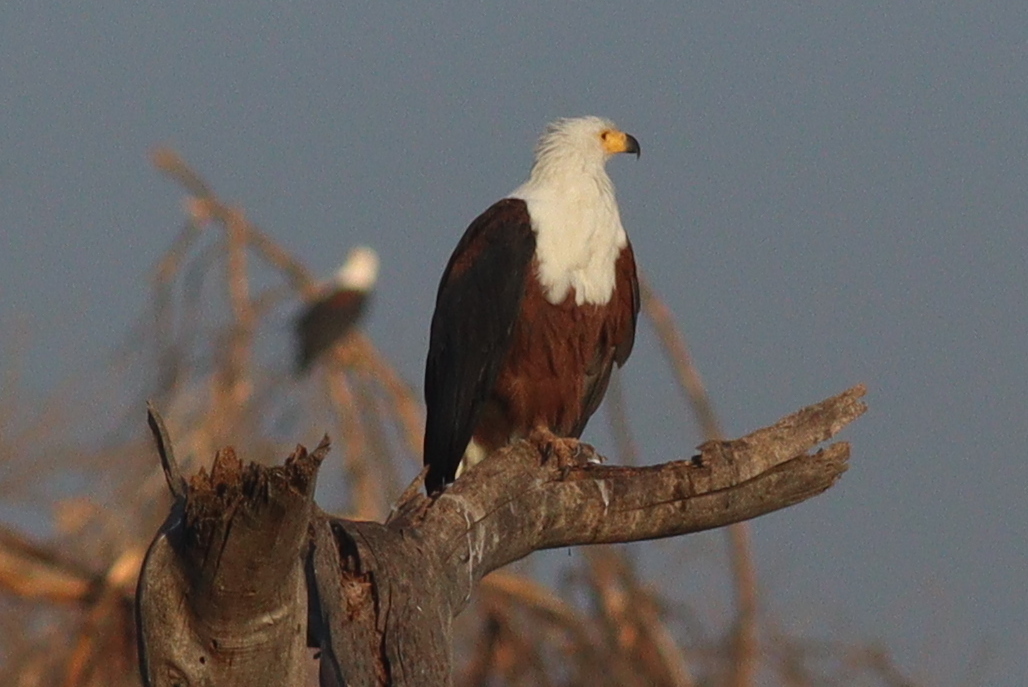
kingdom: Animalia
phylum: Chordata
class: Aves
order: Accipitriformes
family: Accipitridae
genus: Haliaeetus
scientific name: Haliaeetus vocifer
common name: African fish eagle
